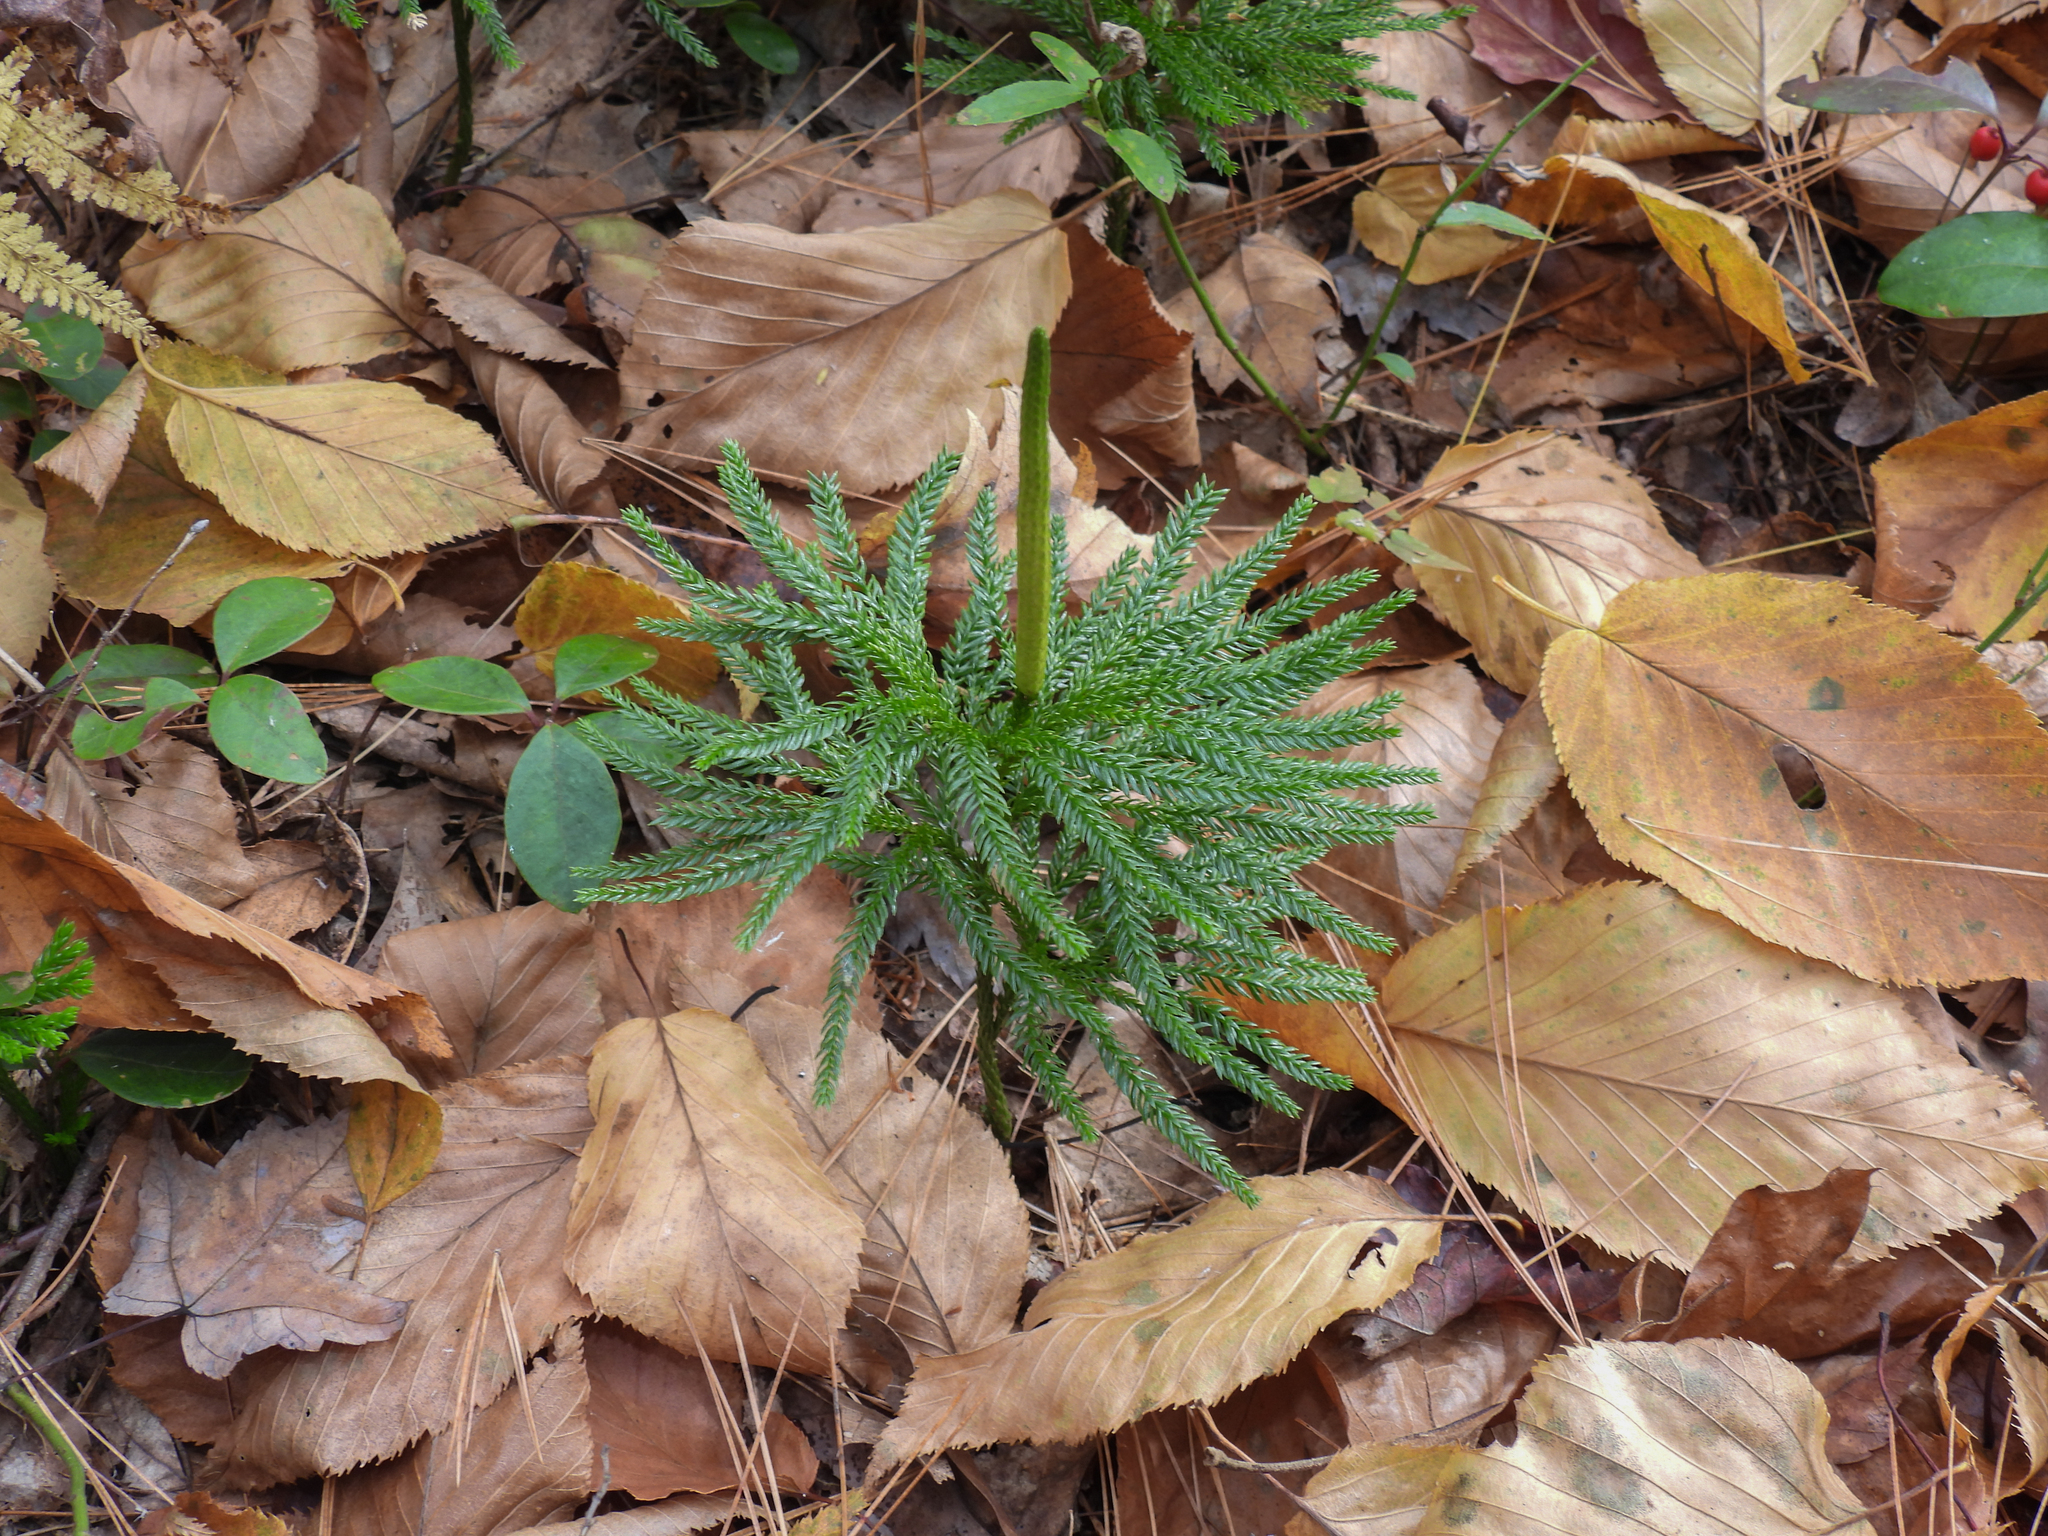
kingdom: Plantae
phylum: Tracheophyta
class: Lycopodiopsida
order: Lycopodiales
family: Lycopodiaceae
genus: Dendrolycopodium
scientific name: Dendrolycopodium obscurum
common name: Common ground-pine
